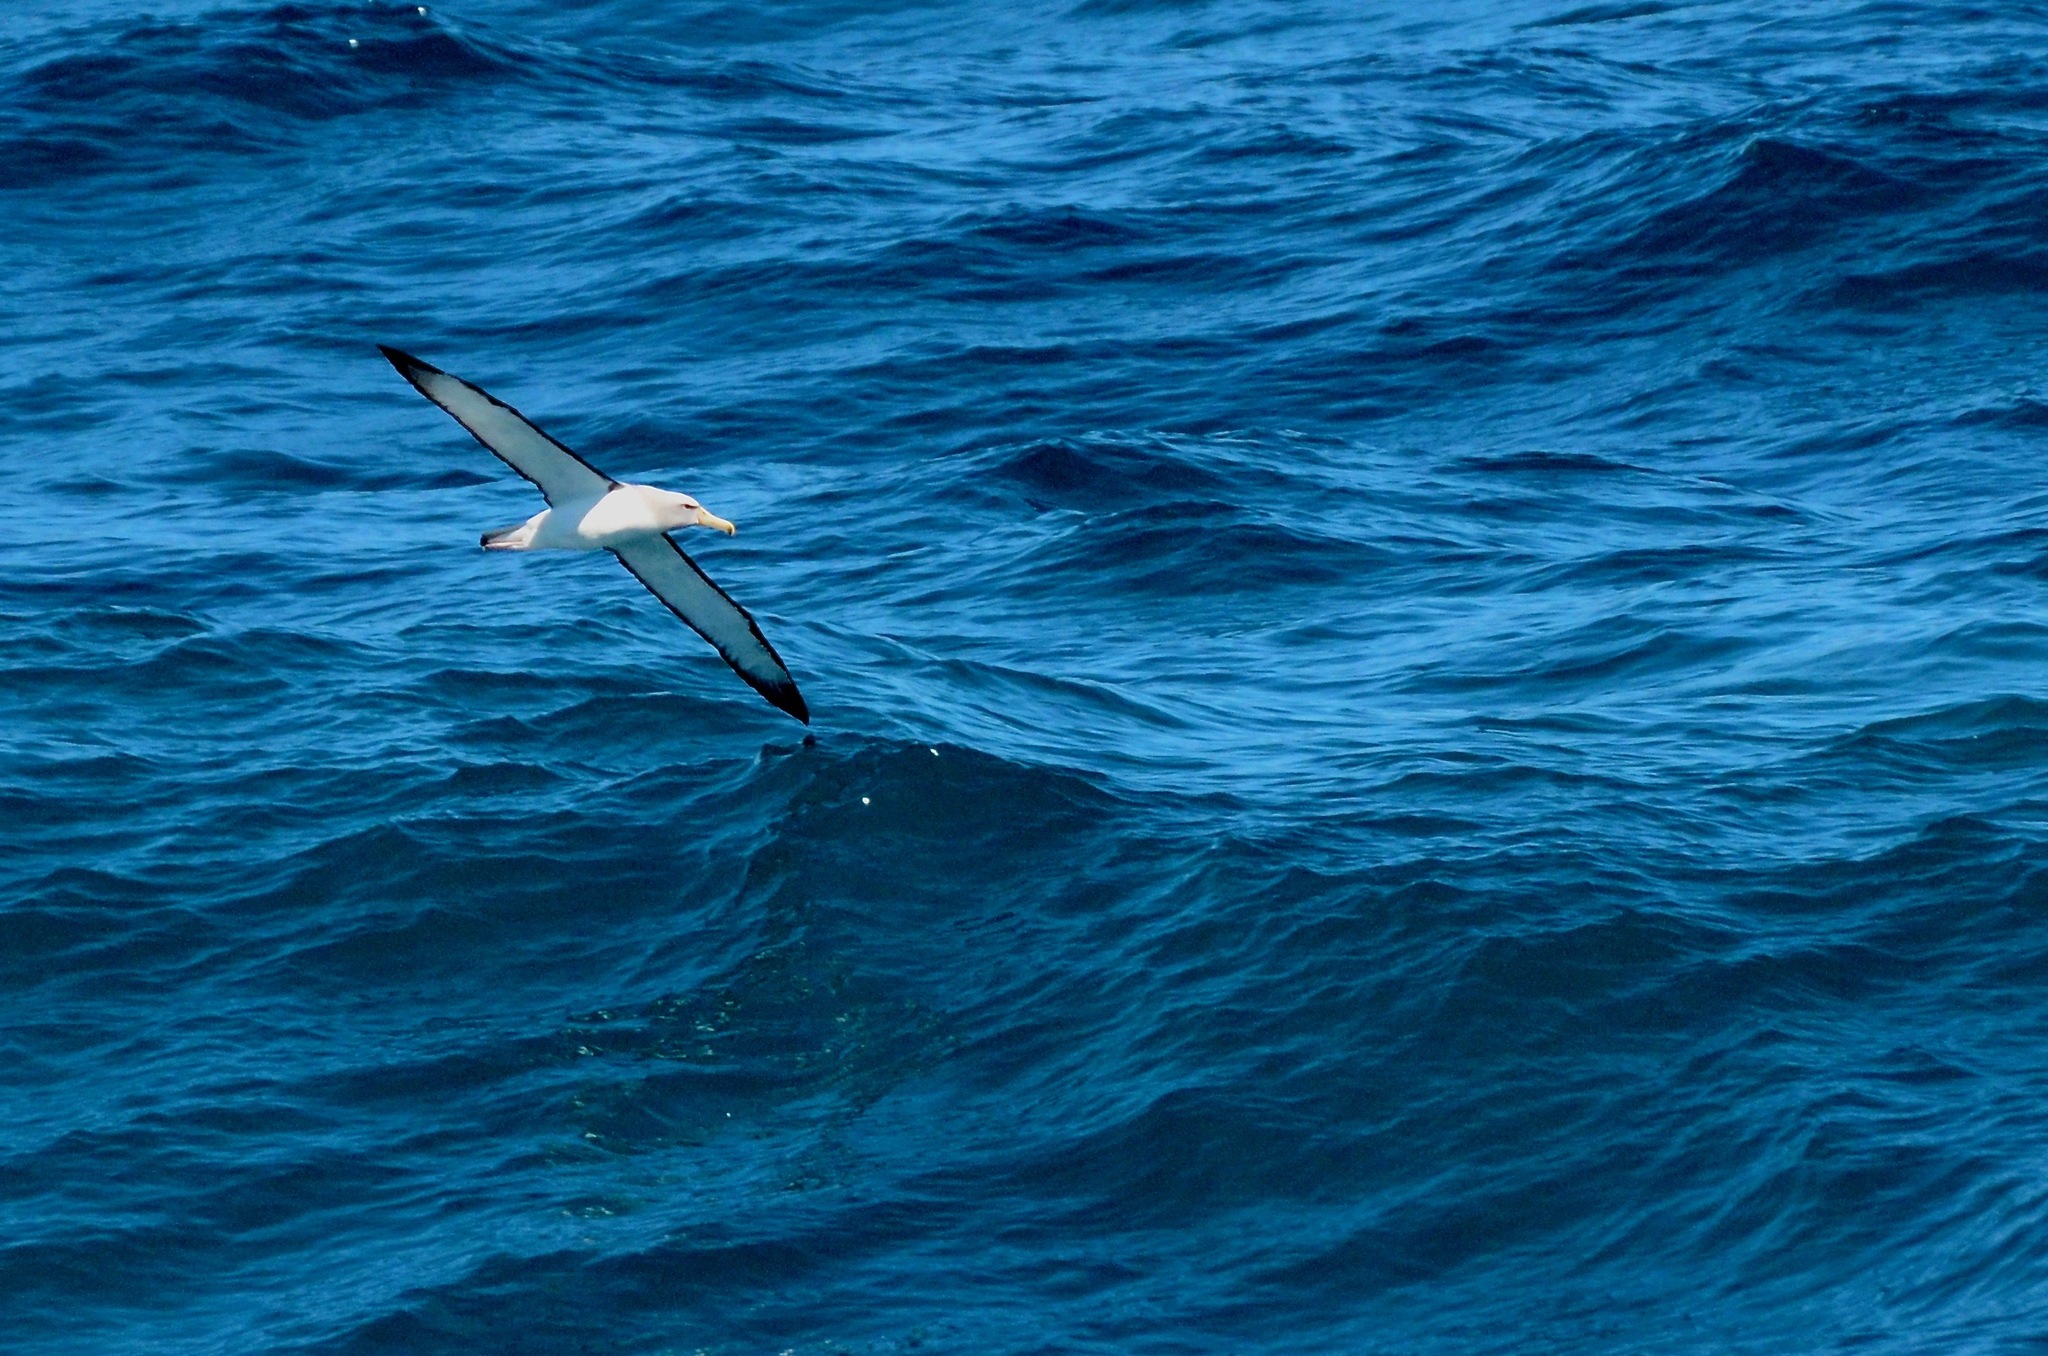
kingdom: Animalia
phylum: Chordata
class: Aves
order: Procellariiformes
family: Diomedeidae
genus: Thalassarche
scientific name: Thalassarche salvini
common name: Salvin's albatross
